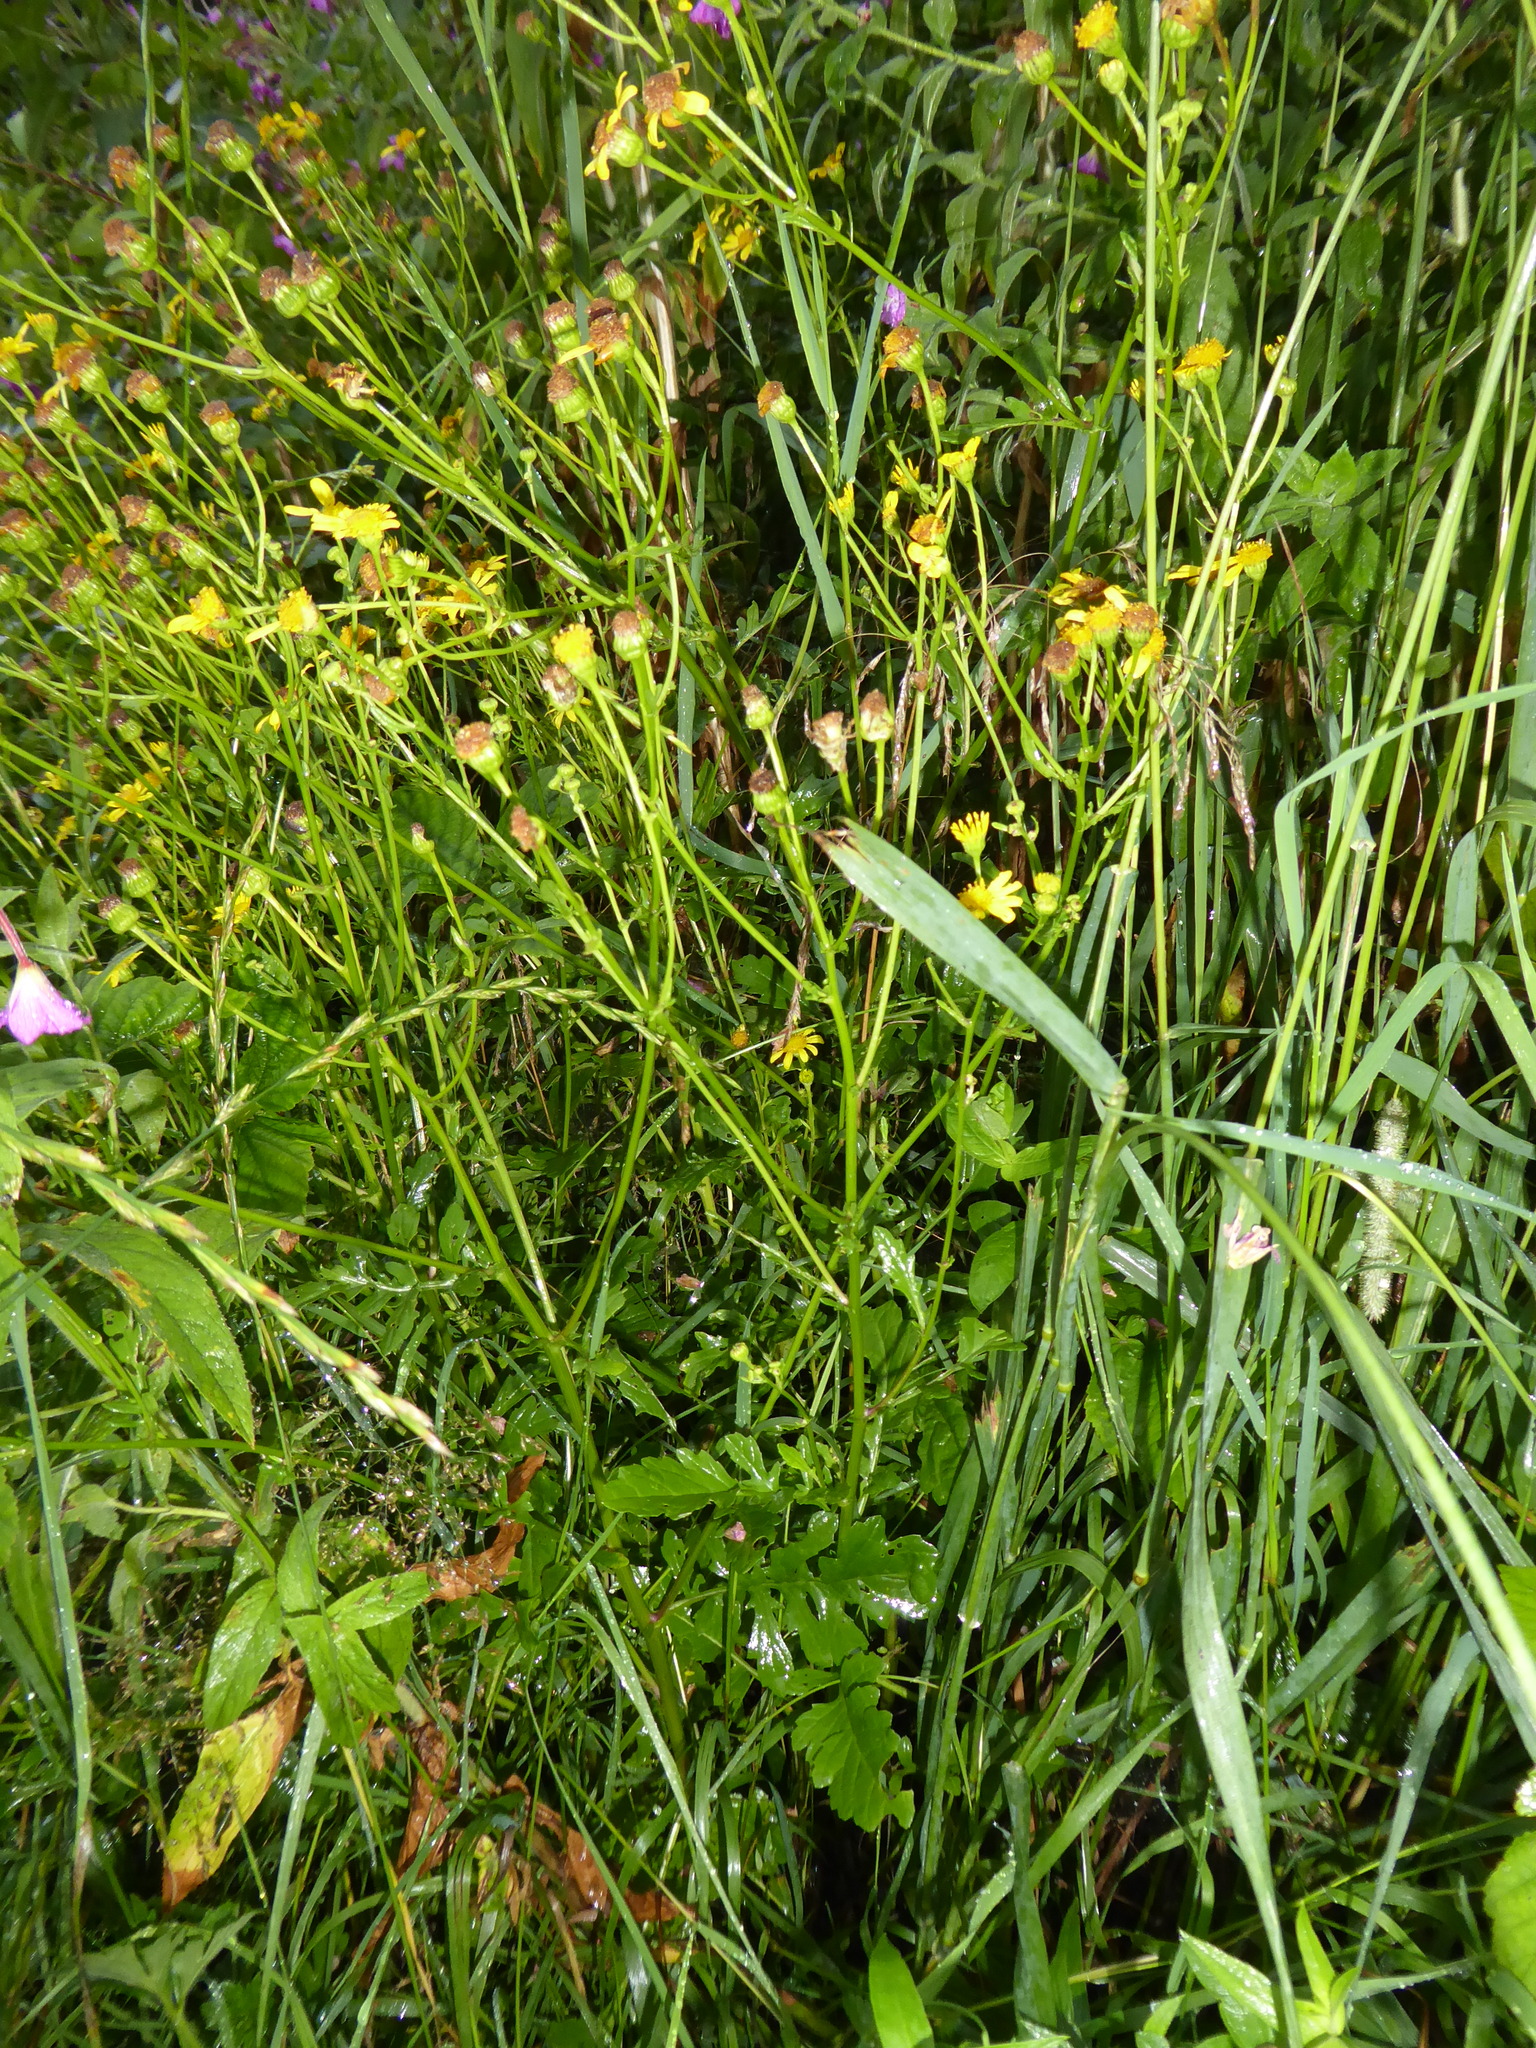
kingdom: Plantae
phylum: Tracheophyta
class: Magnoliopsida
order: Asterales
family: Asteraceae
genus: Jacobaea
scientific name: Jacobaea aquatica
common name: Water ragwort
